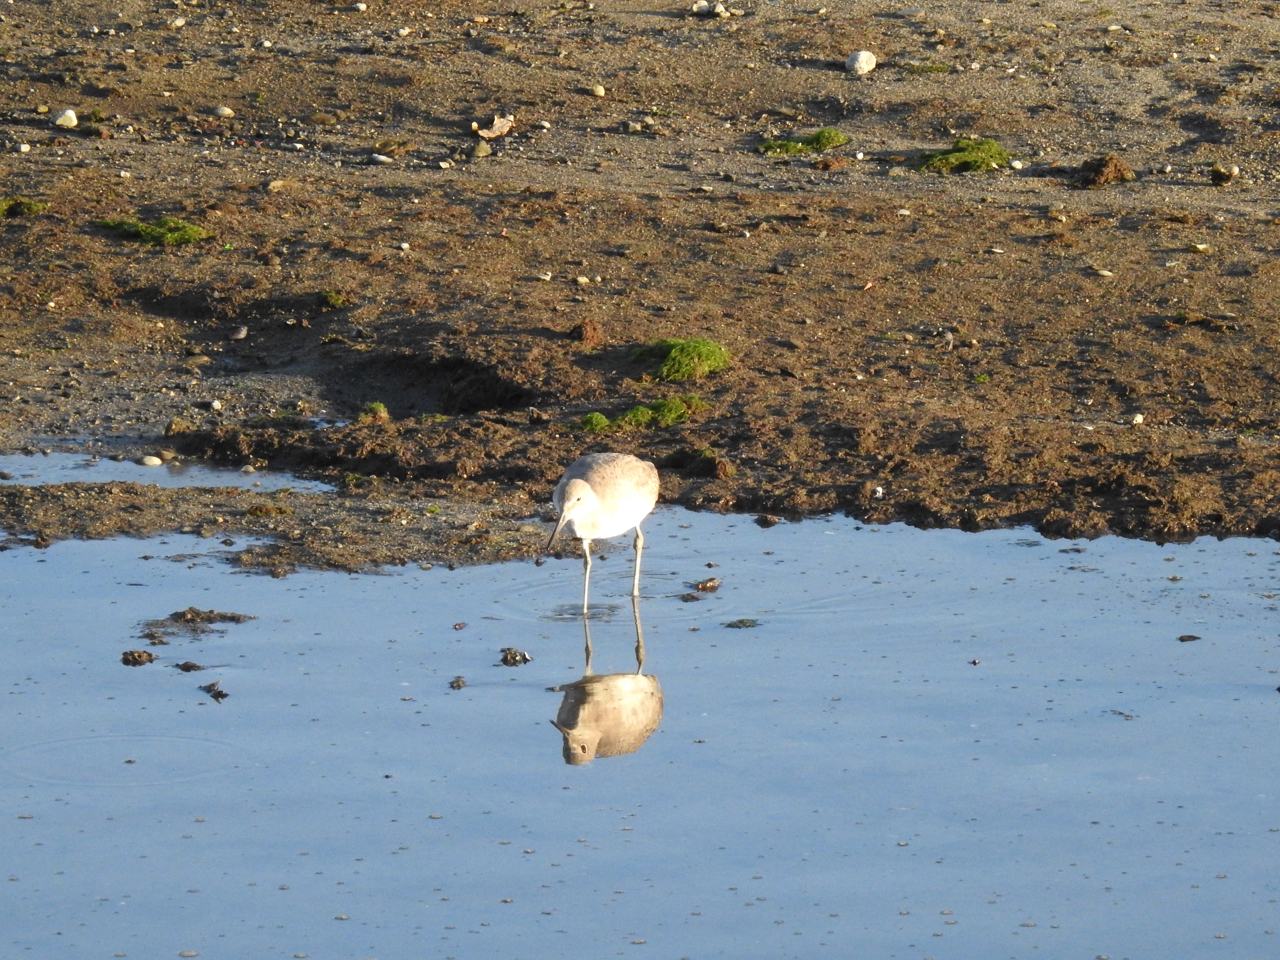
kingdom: Animalia
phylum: Chordata
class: Aves
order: Charadriiformes
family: Scolopacidae
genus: Tringa
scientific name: Tringa semipalmata
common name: Willet
